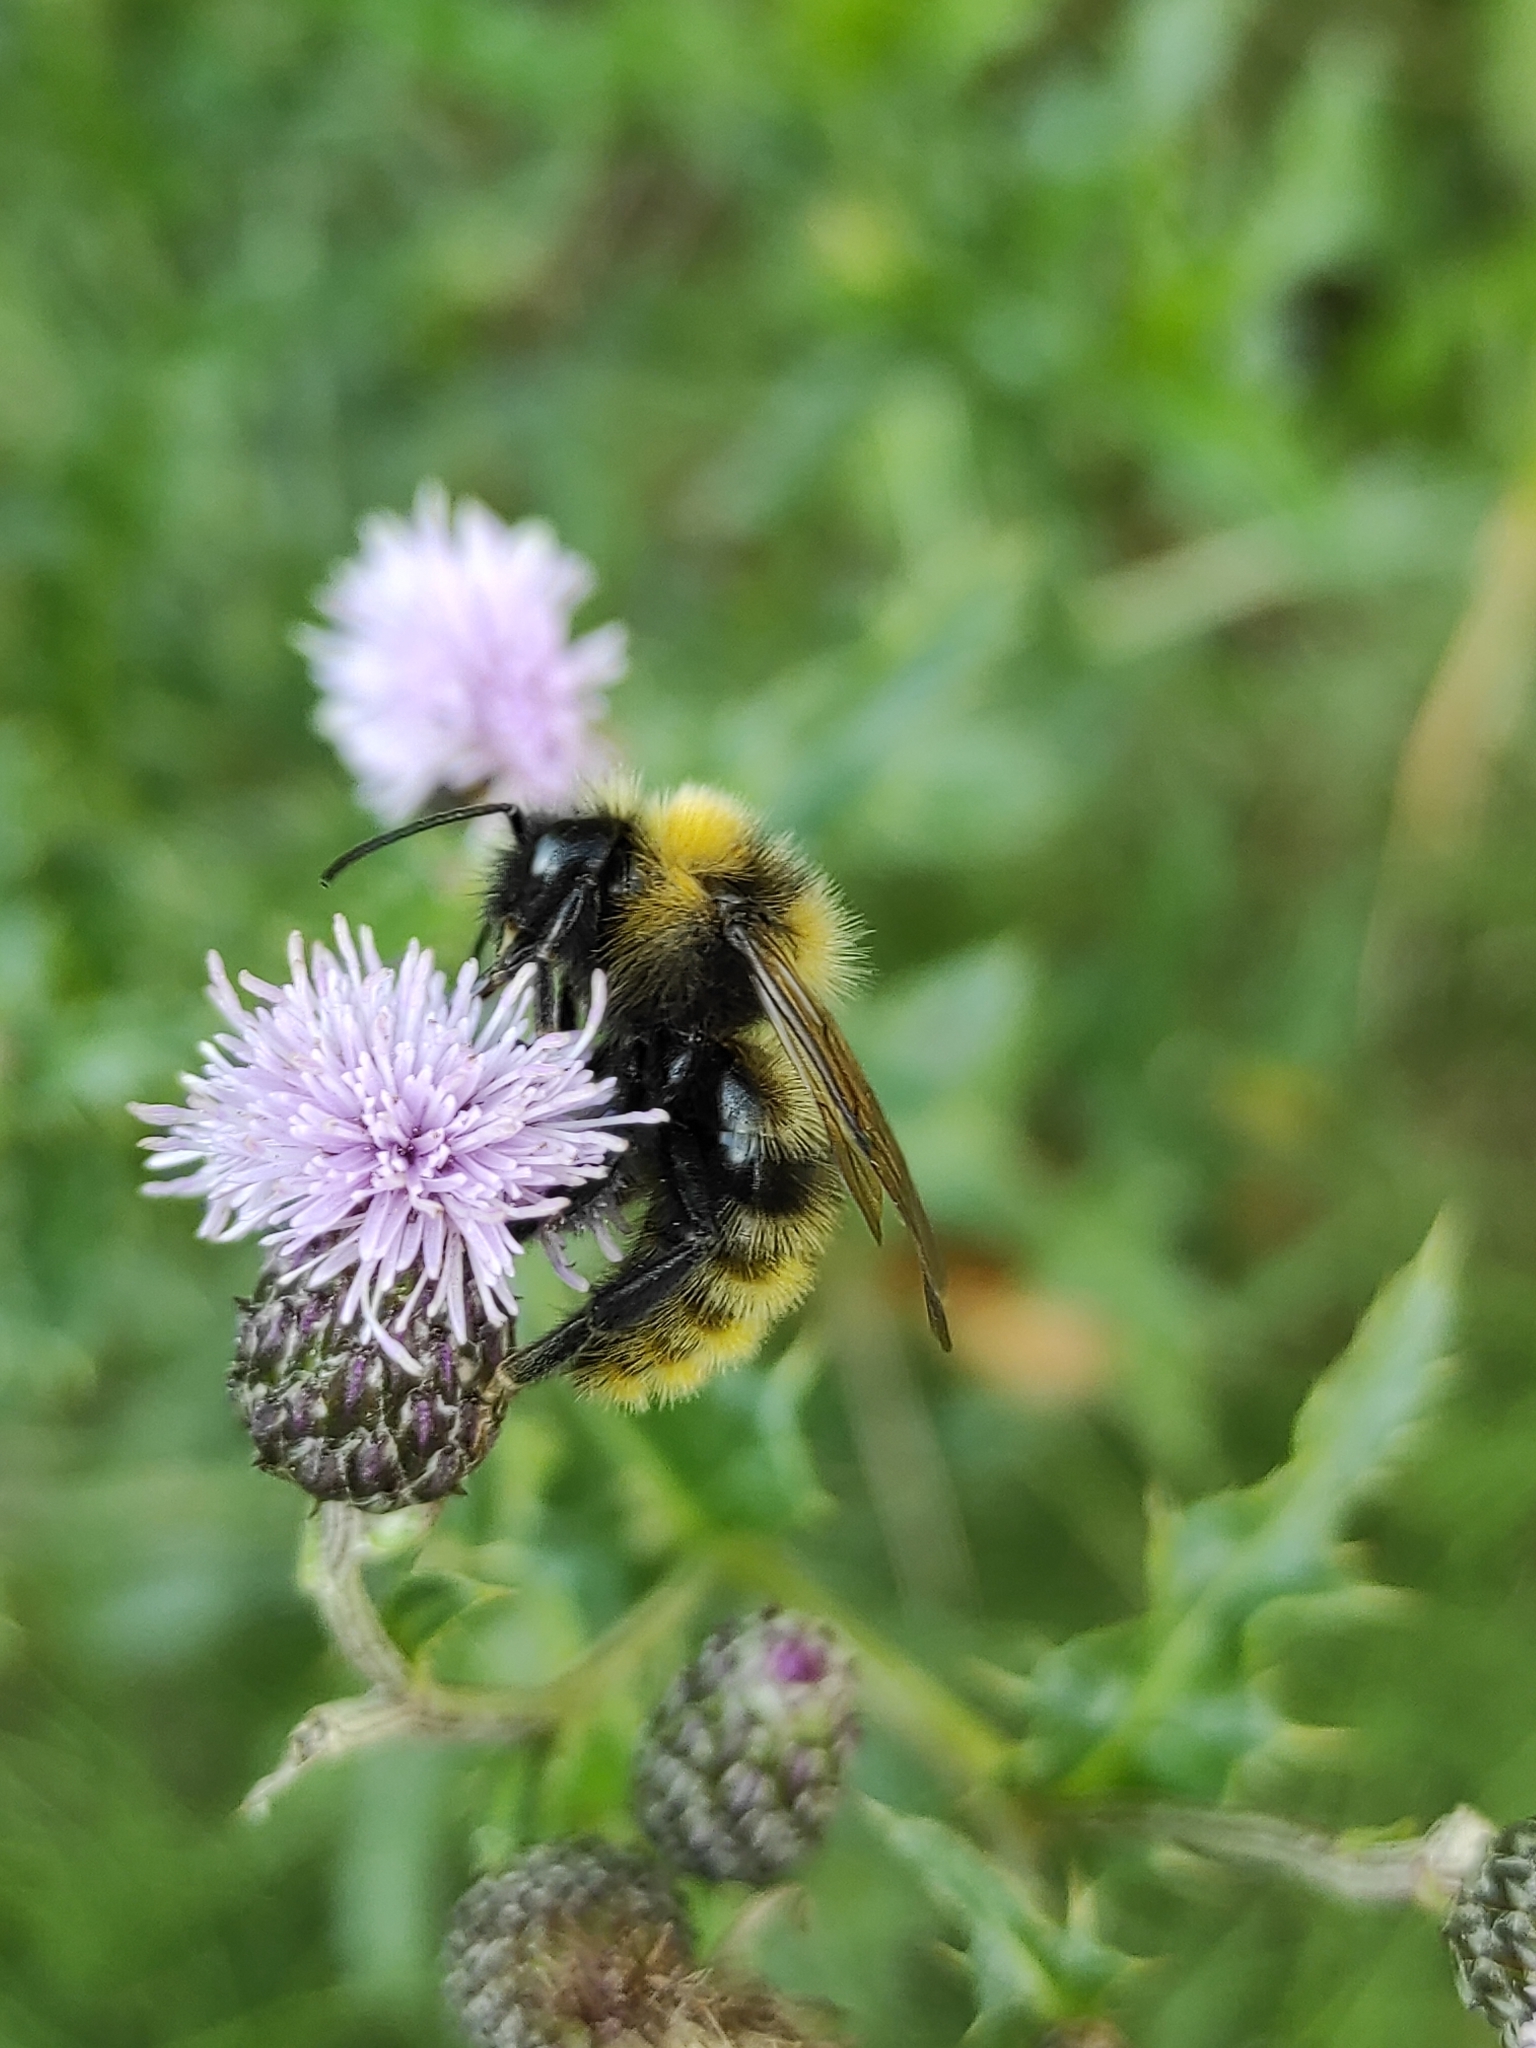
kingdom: Animalia
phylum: Arthropoda
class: Insecta
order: Hymenoptera
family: Apidae
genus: Bombus
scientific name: Bombus campestris
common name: Field cuckoo-bee
